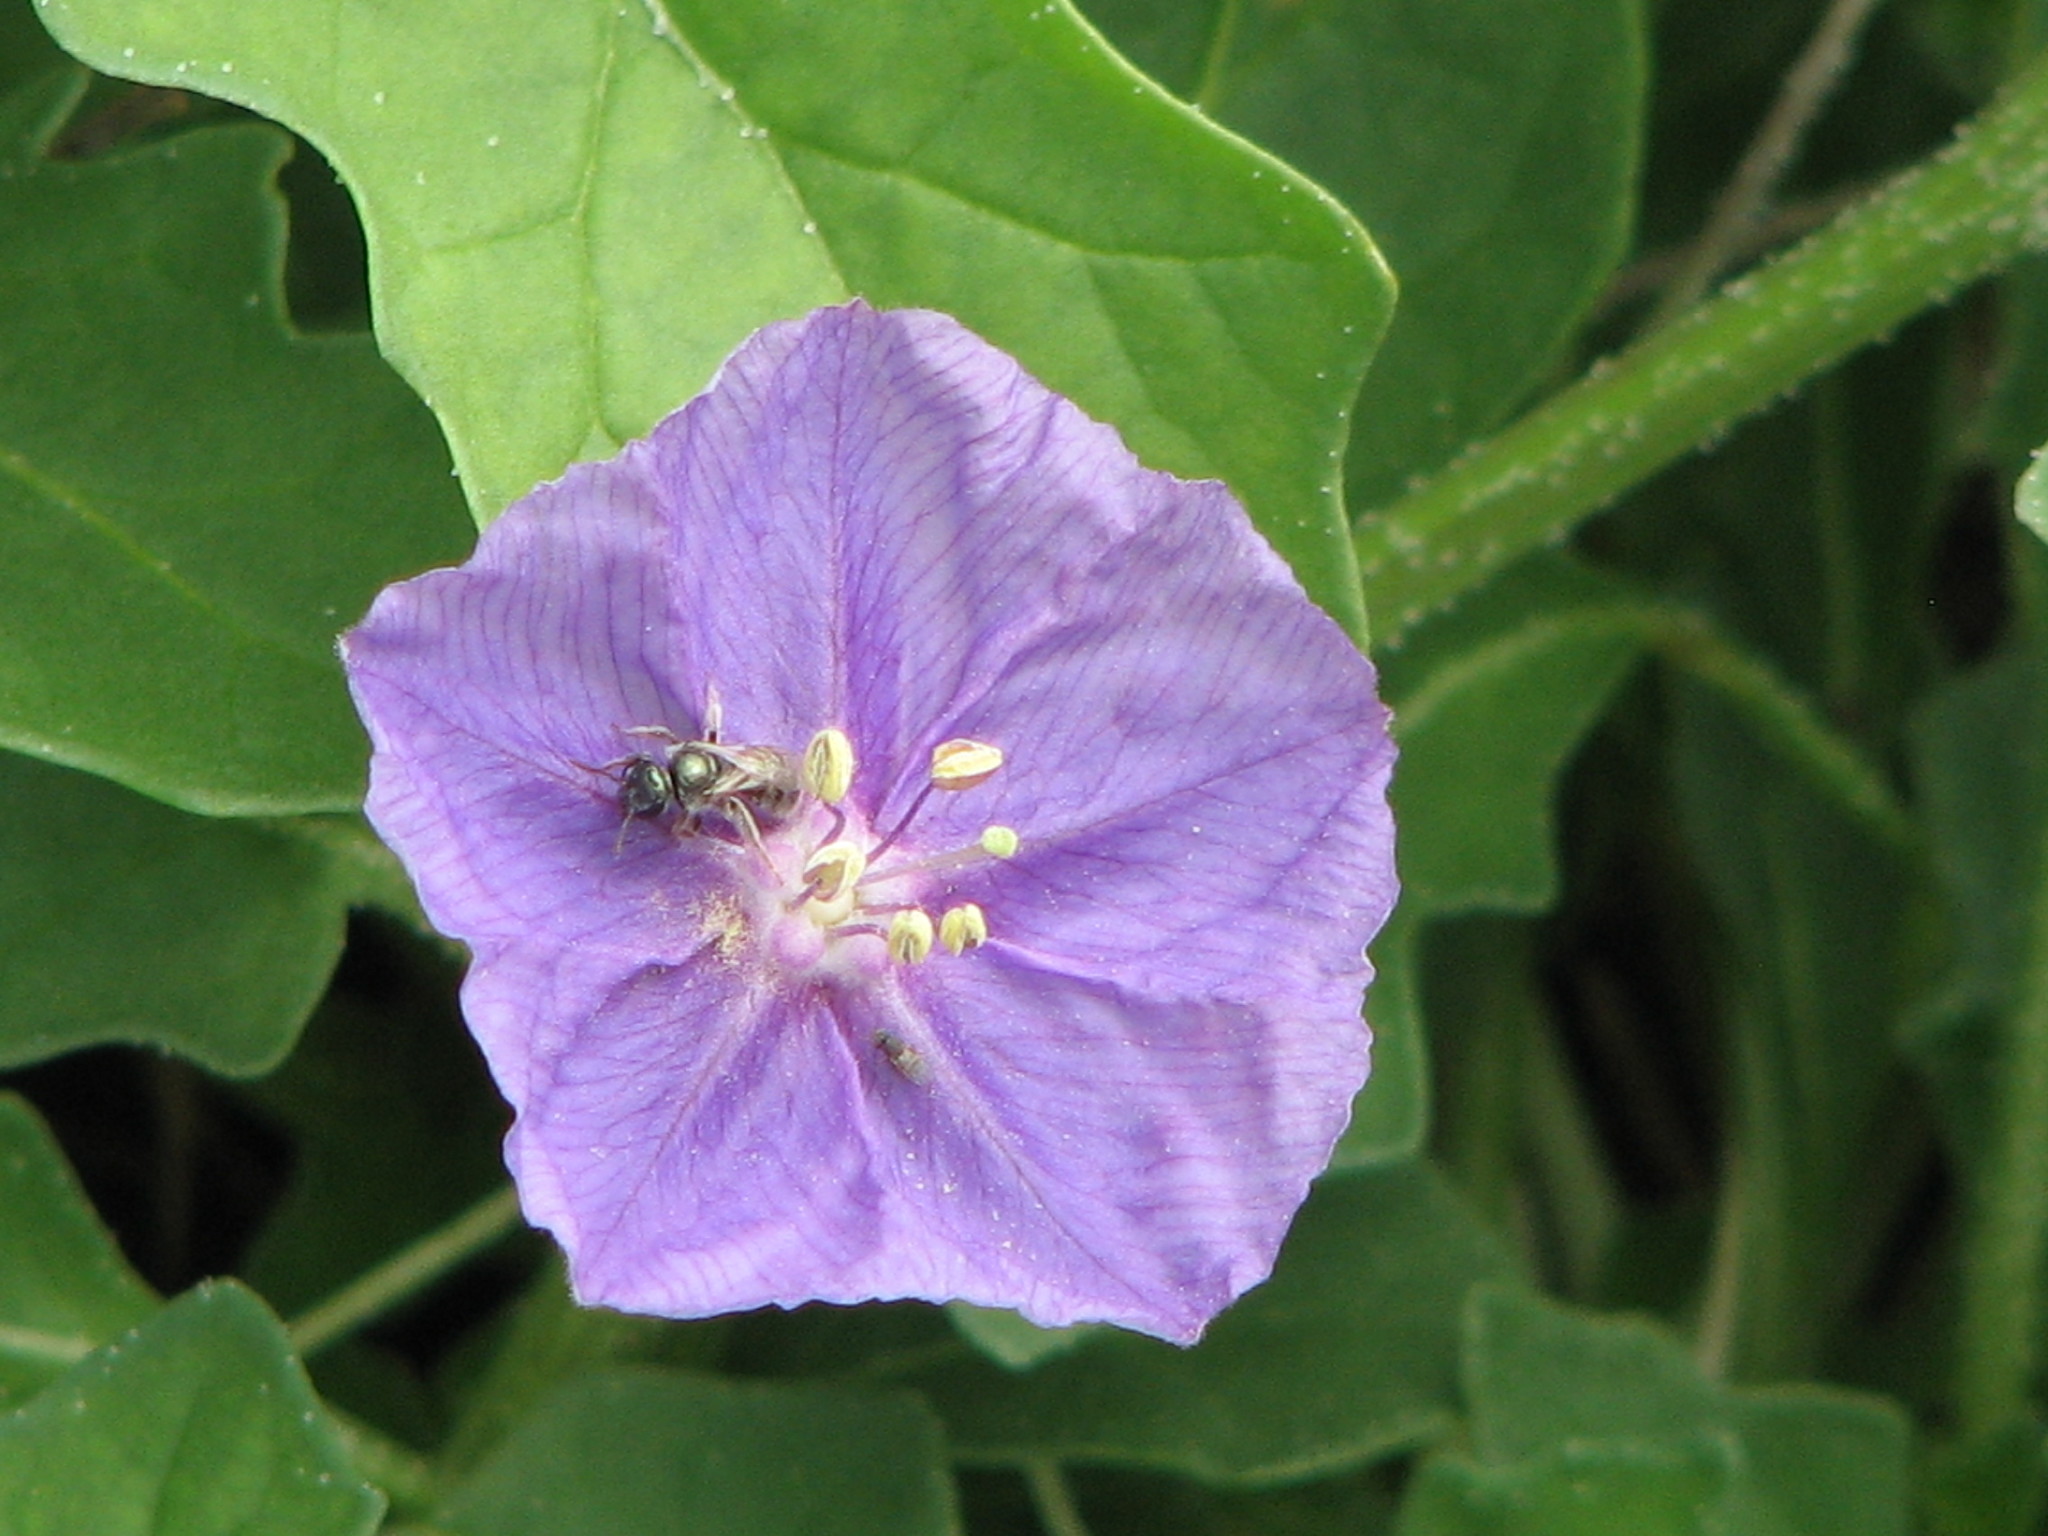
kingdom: Plantae
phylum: Tracheophyta
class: Magnoliopsida
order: Solanales
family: Solanaceae
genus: Quincula
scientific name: Quincula lobata
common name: Purple-ground-cherry
